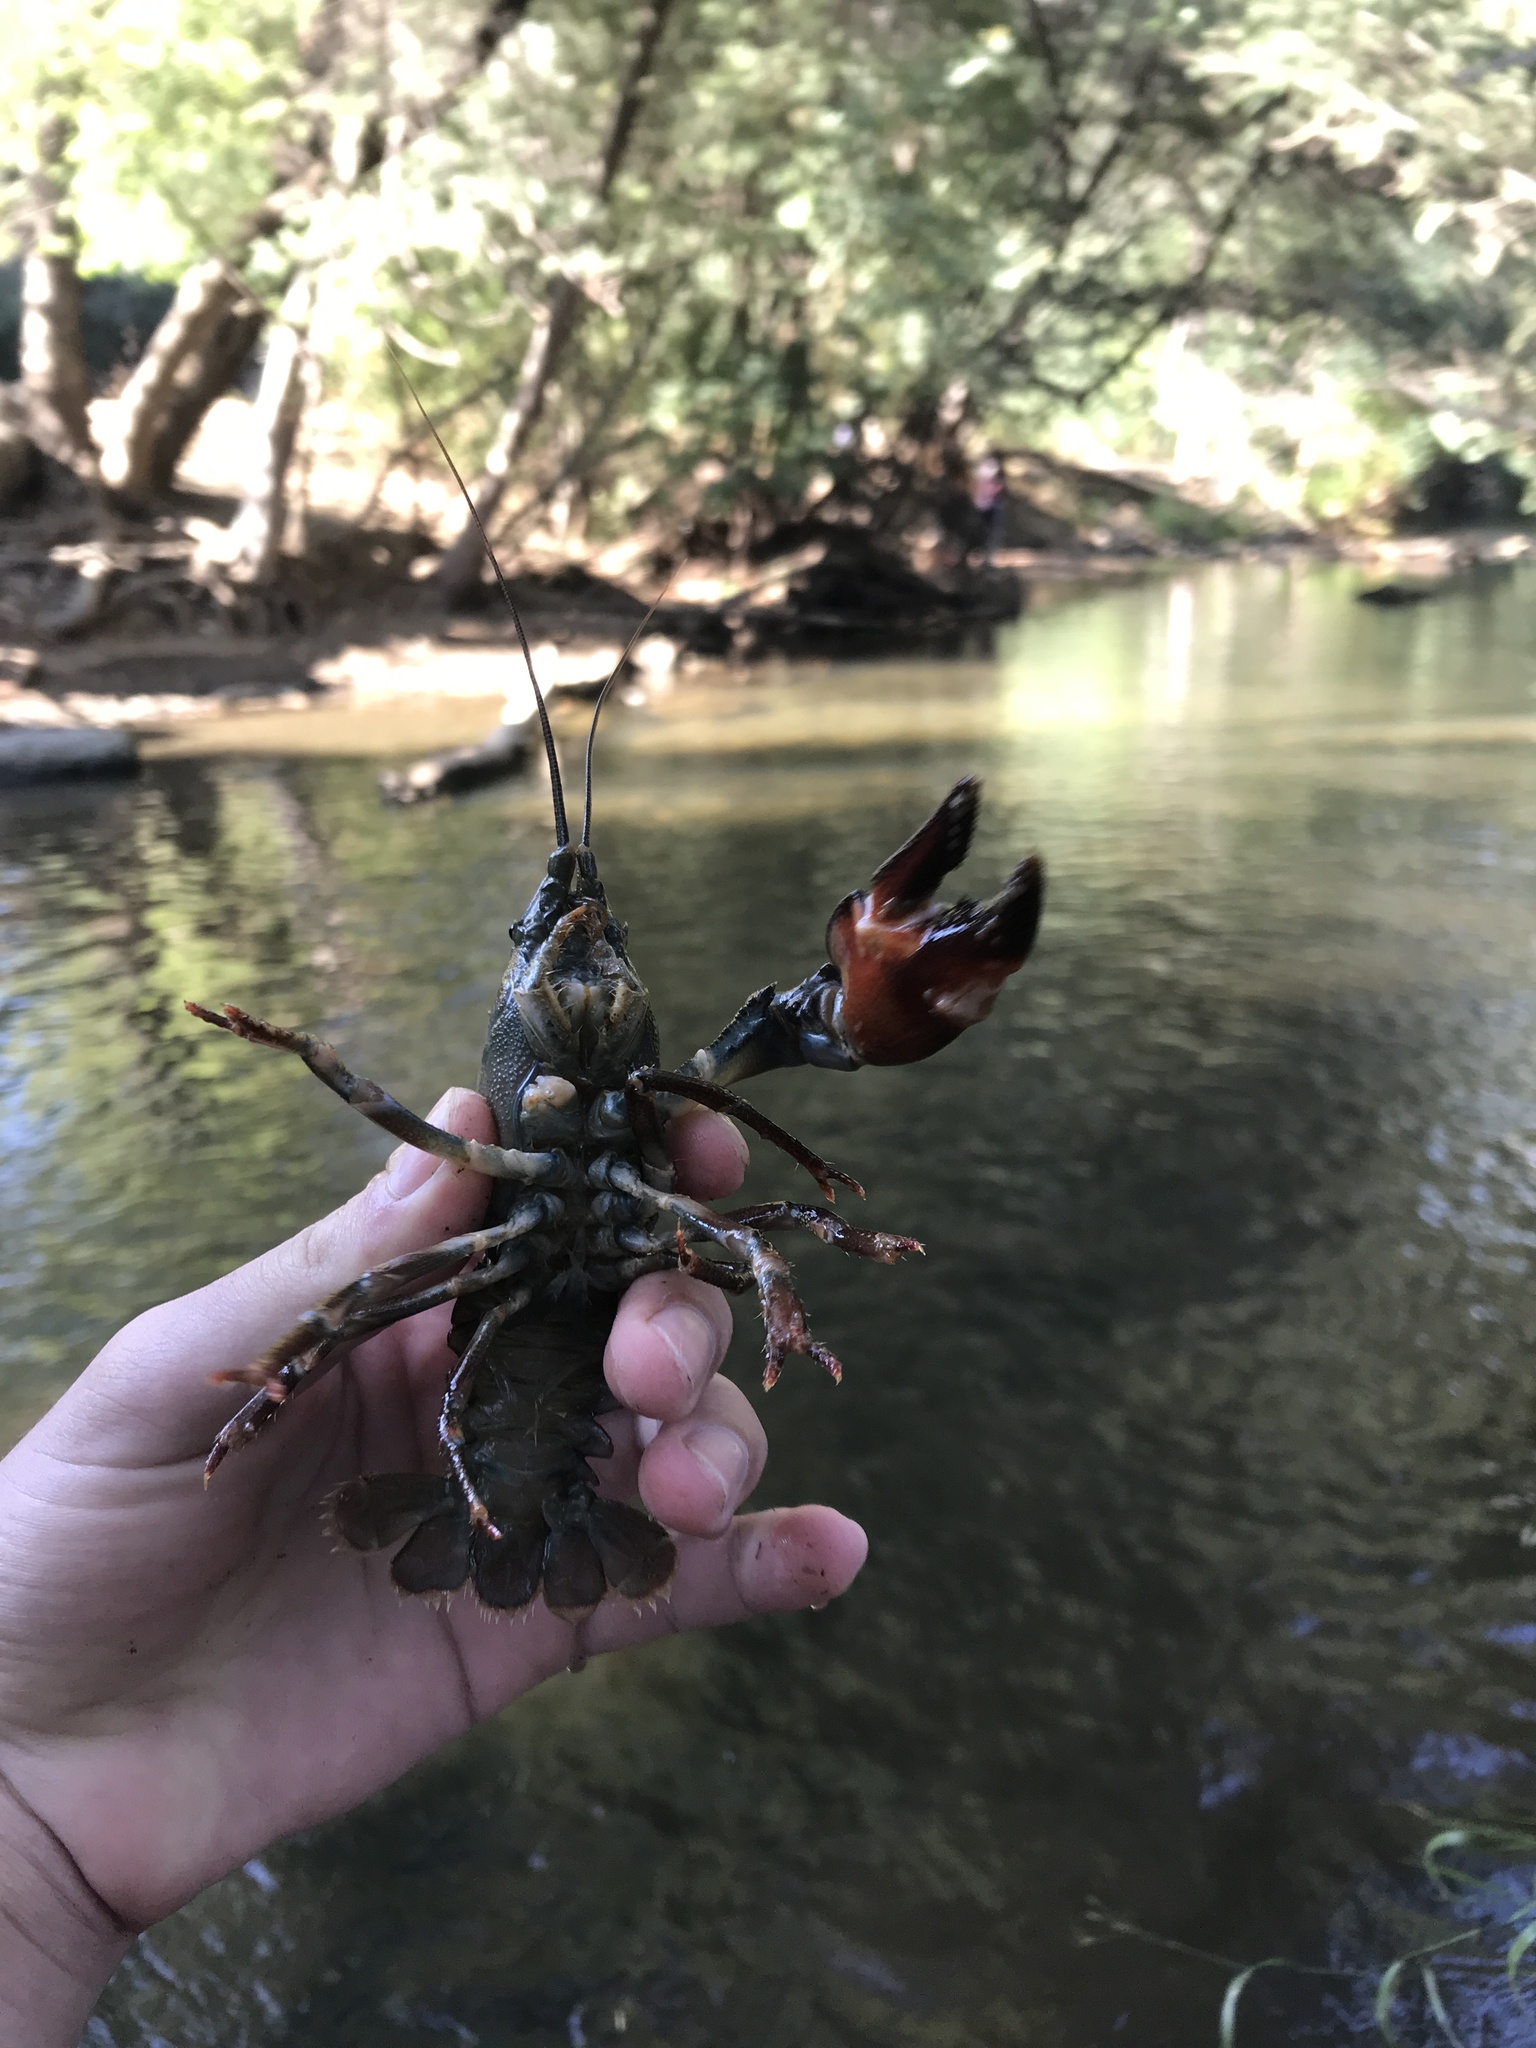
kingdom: Animalia
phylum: Arthropoda
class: Malacostraca
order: Decapoda
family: Astacidae
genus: Pacifastacus
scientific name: Pacifastacus leniusculus
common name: Signal crayfish
